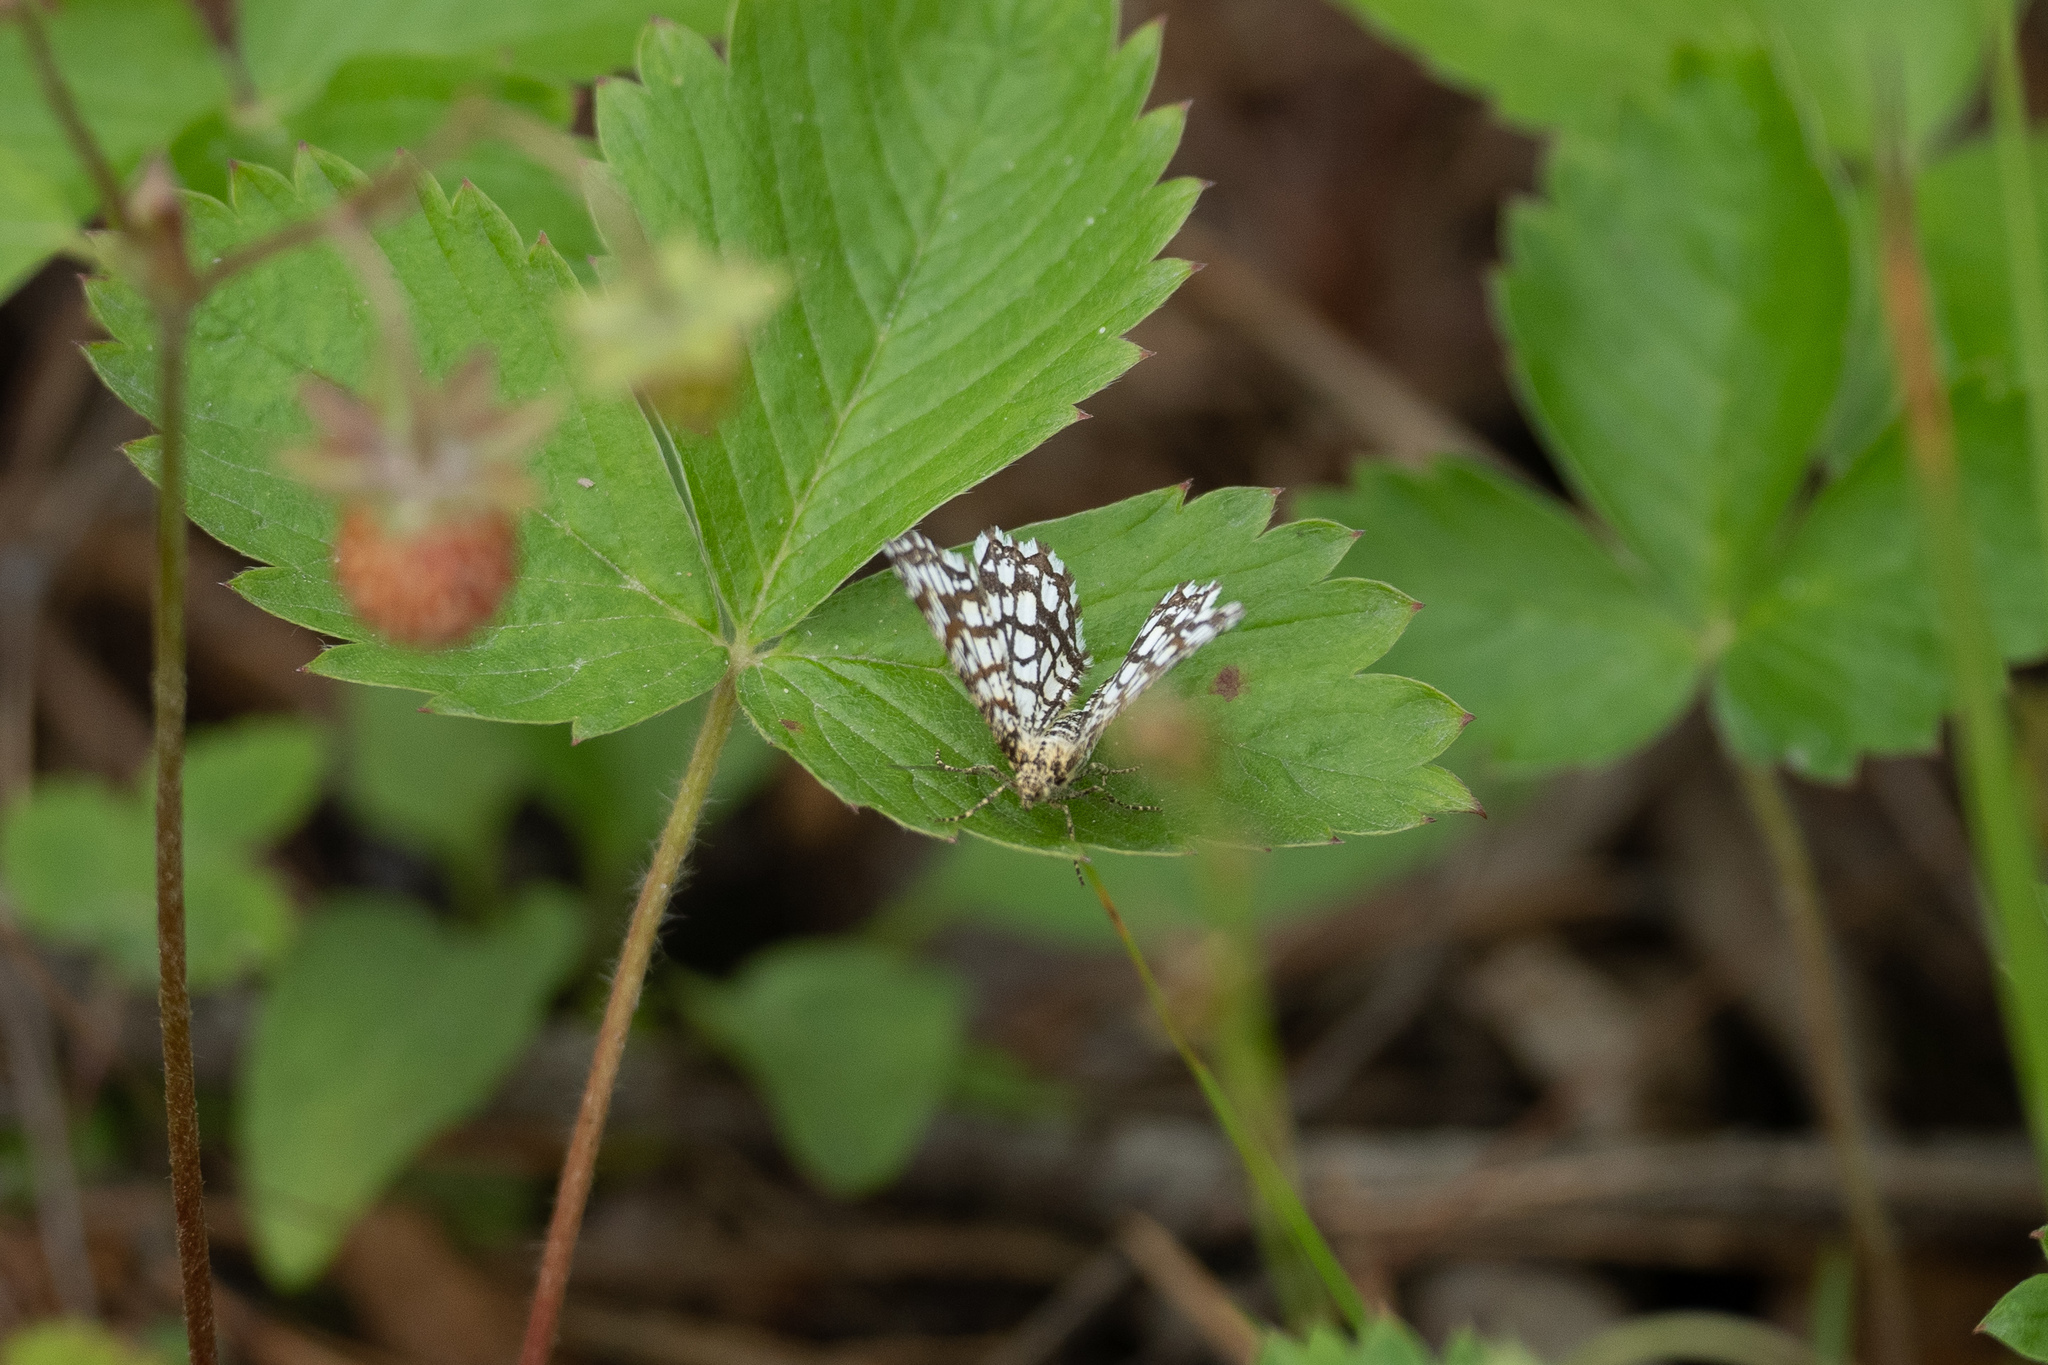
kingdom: Animalia
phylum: Arthropoda
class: Insecta
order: Lepidoptera
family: Geometridae
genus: Chiasmia
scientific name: Chiasmia clathrata
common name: Latticed heath
